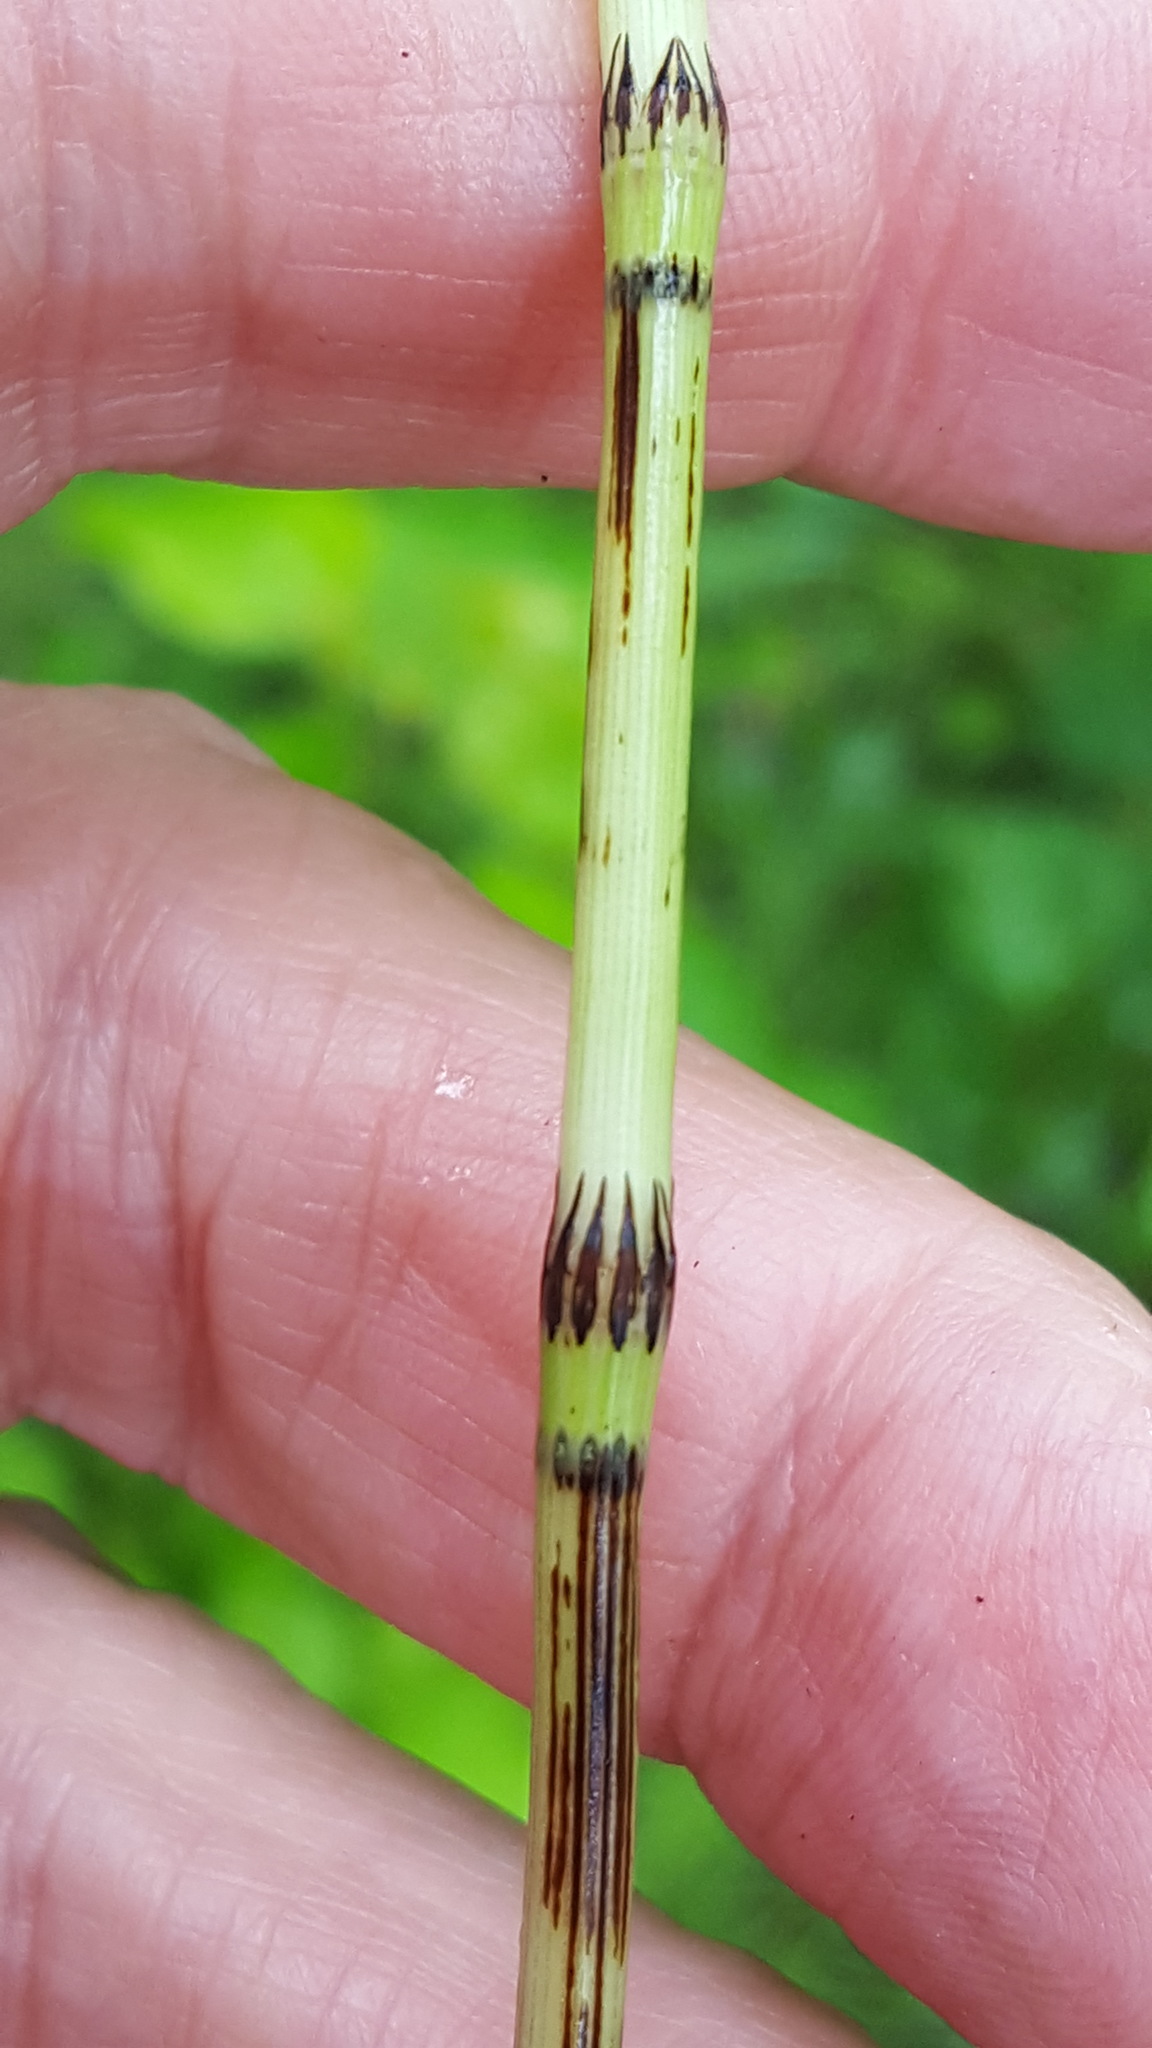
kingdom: Plantae
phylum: Tracheophyta
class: Polypodiopsida
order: Equisetales
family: Equisetaceae
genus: Equisetum
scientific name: Equisetum pratense
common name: Meadow horsetail
